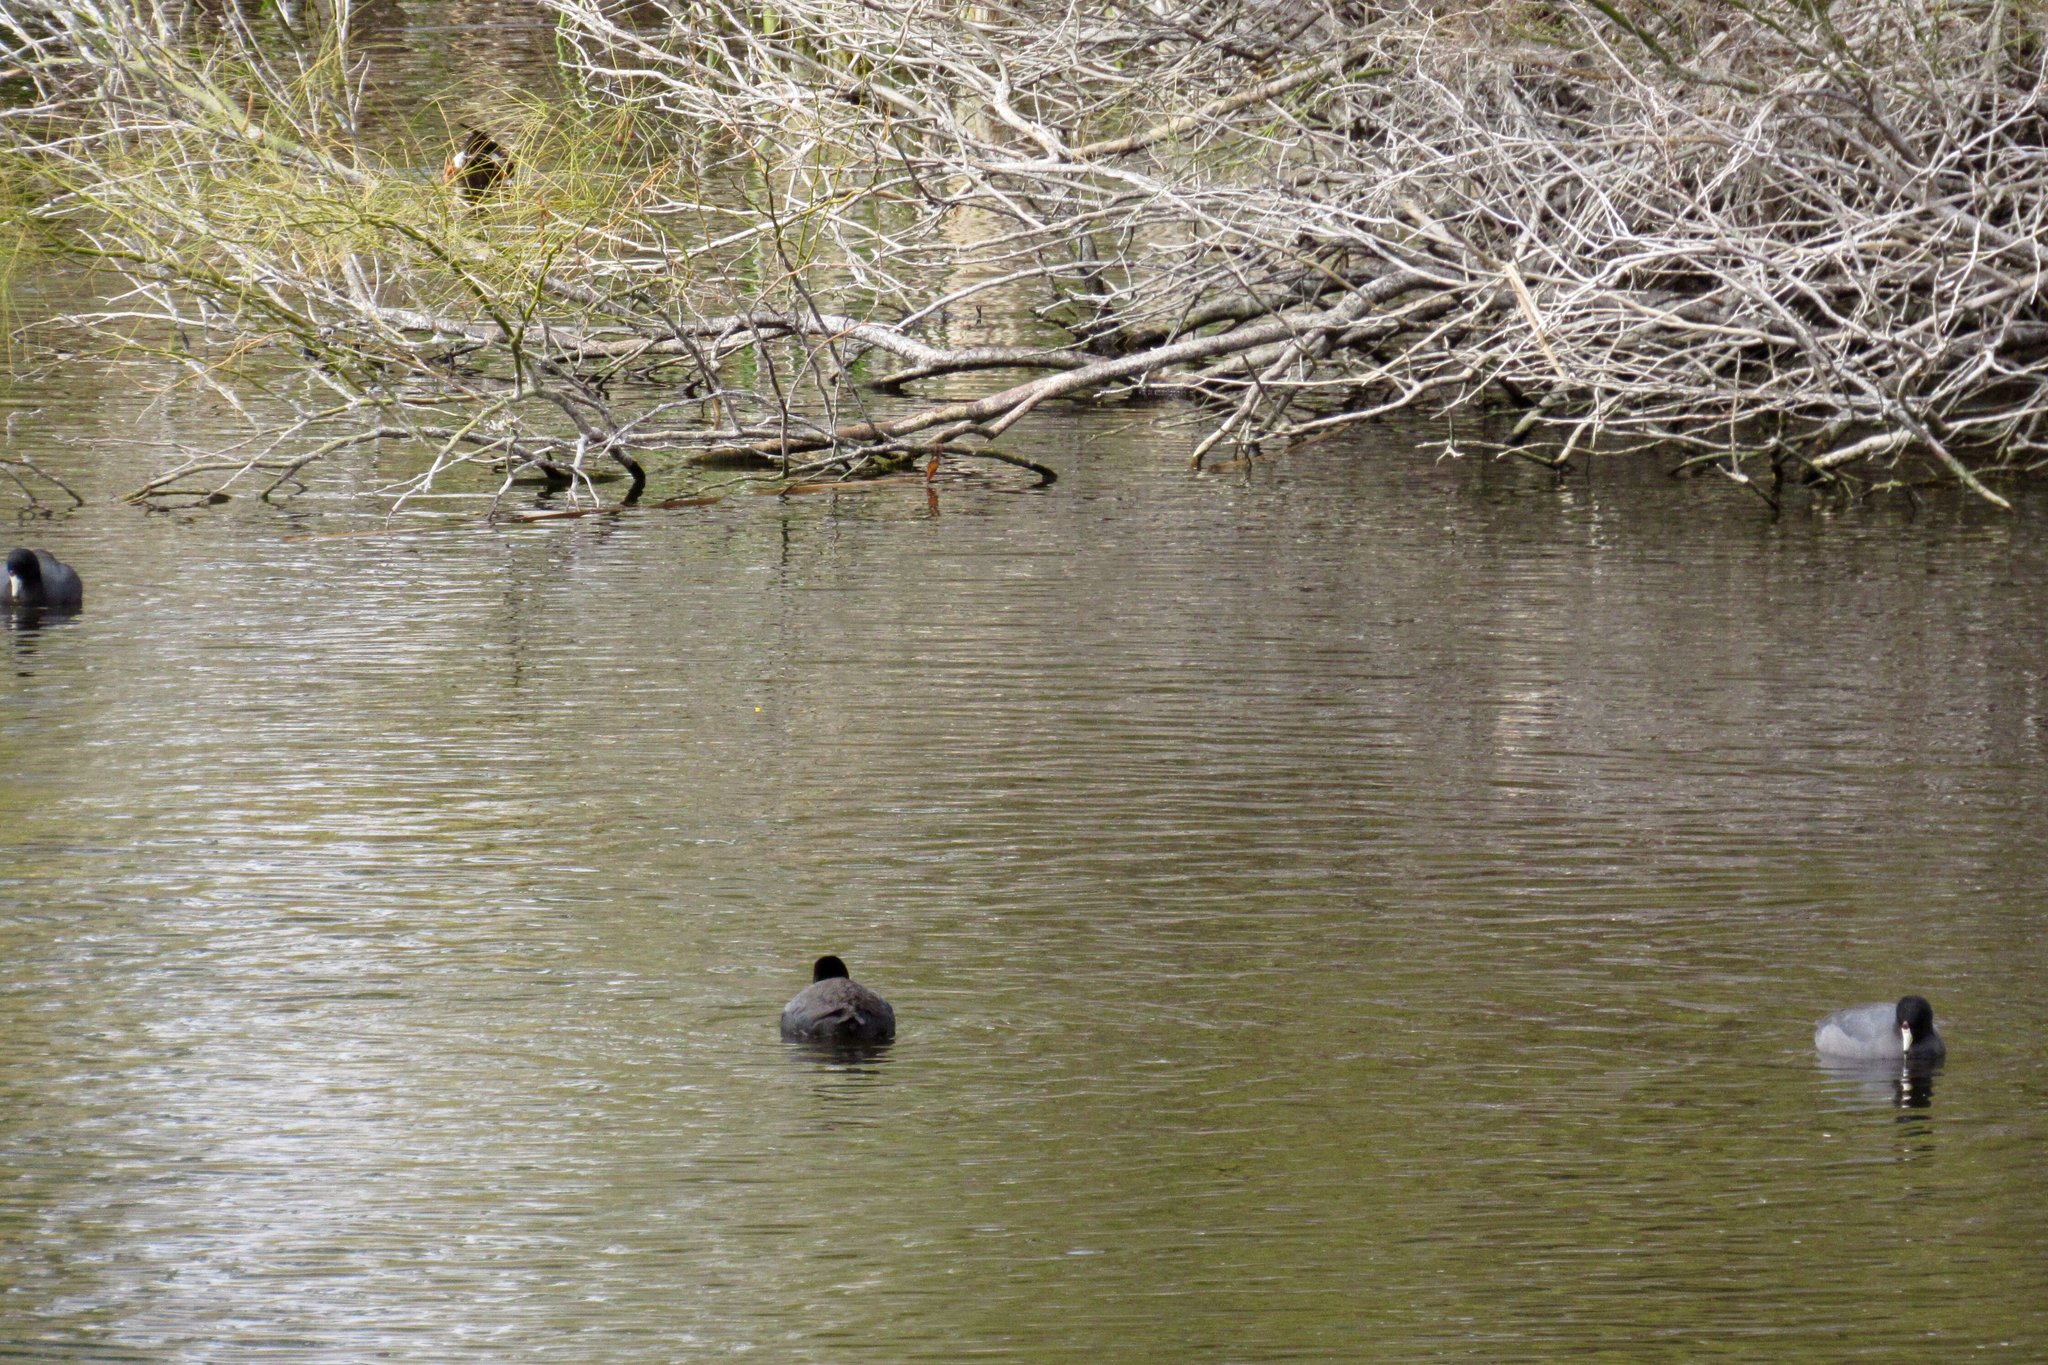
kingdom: Animalia
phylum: Chordata
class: Aves
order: Gruiformes
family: Rallidae
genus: Fulica
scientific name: Fulica americana
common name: American coot
